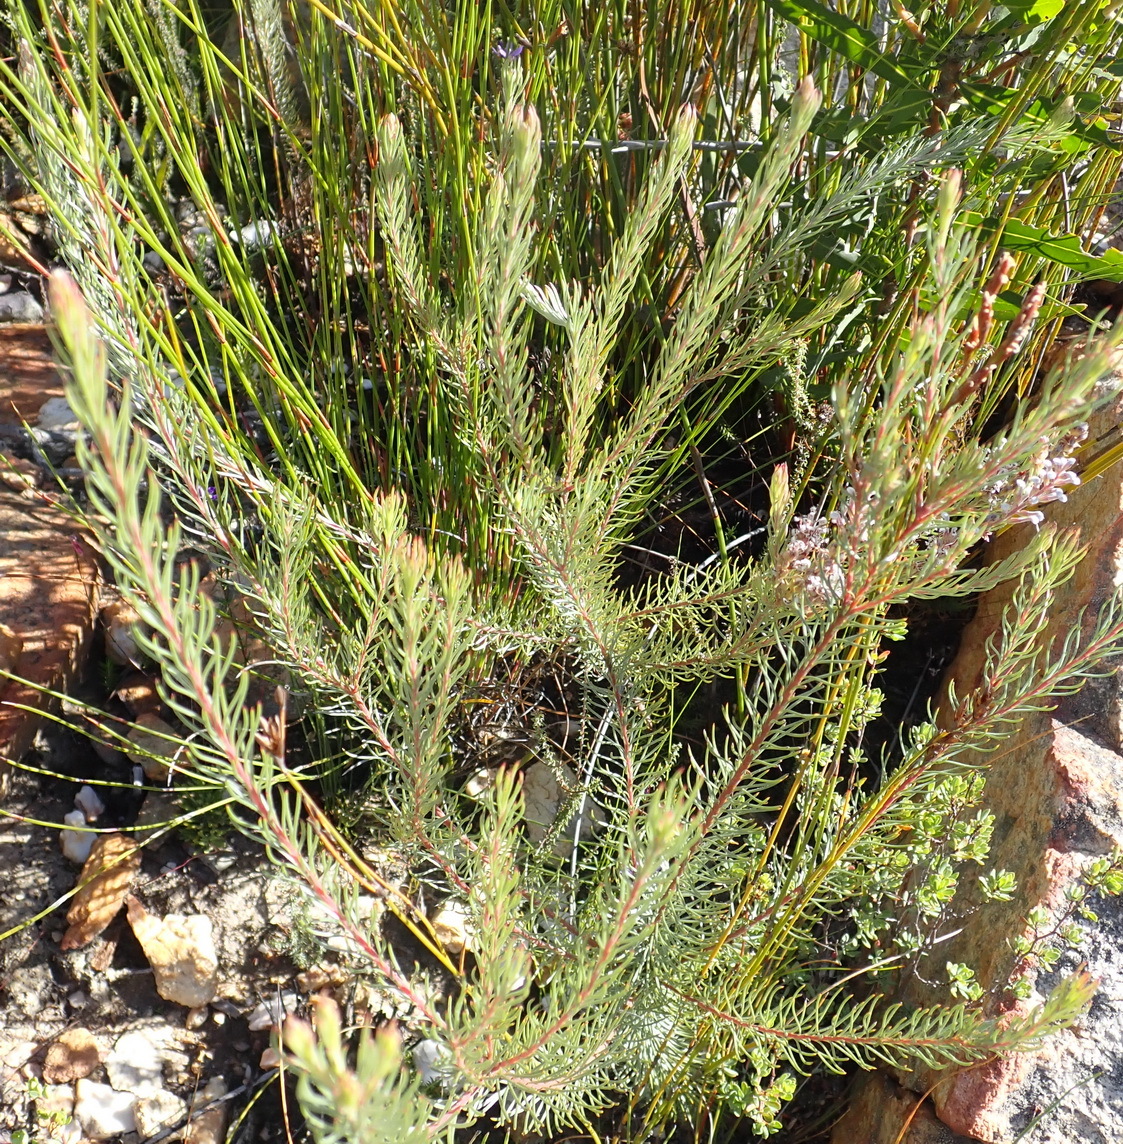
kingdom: Plantae
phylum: Tracheophyta
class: Magnoliopsida
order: Proteales
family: Proteaceae
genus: Spatalla
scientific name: Spatalla barbigera
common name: Fine-leaf spoon
